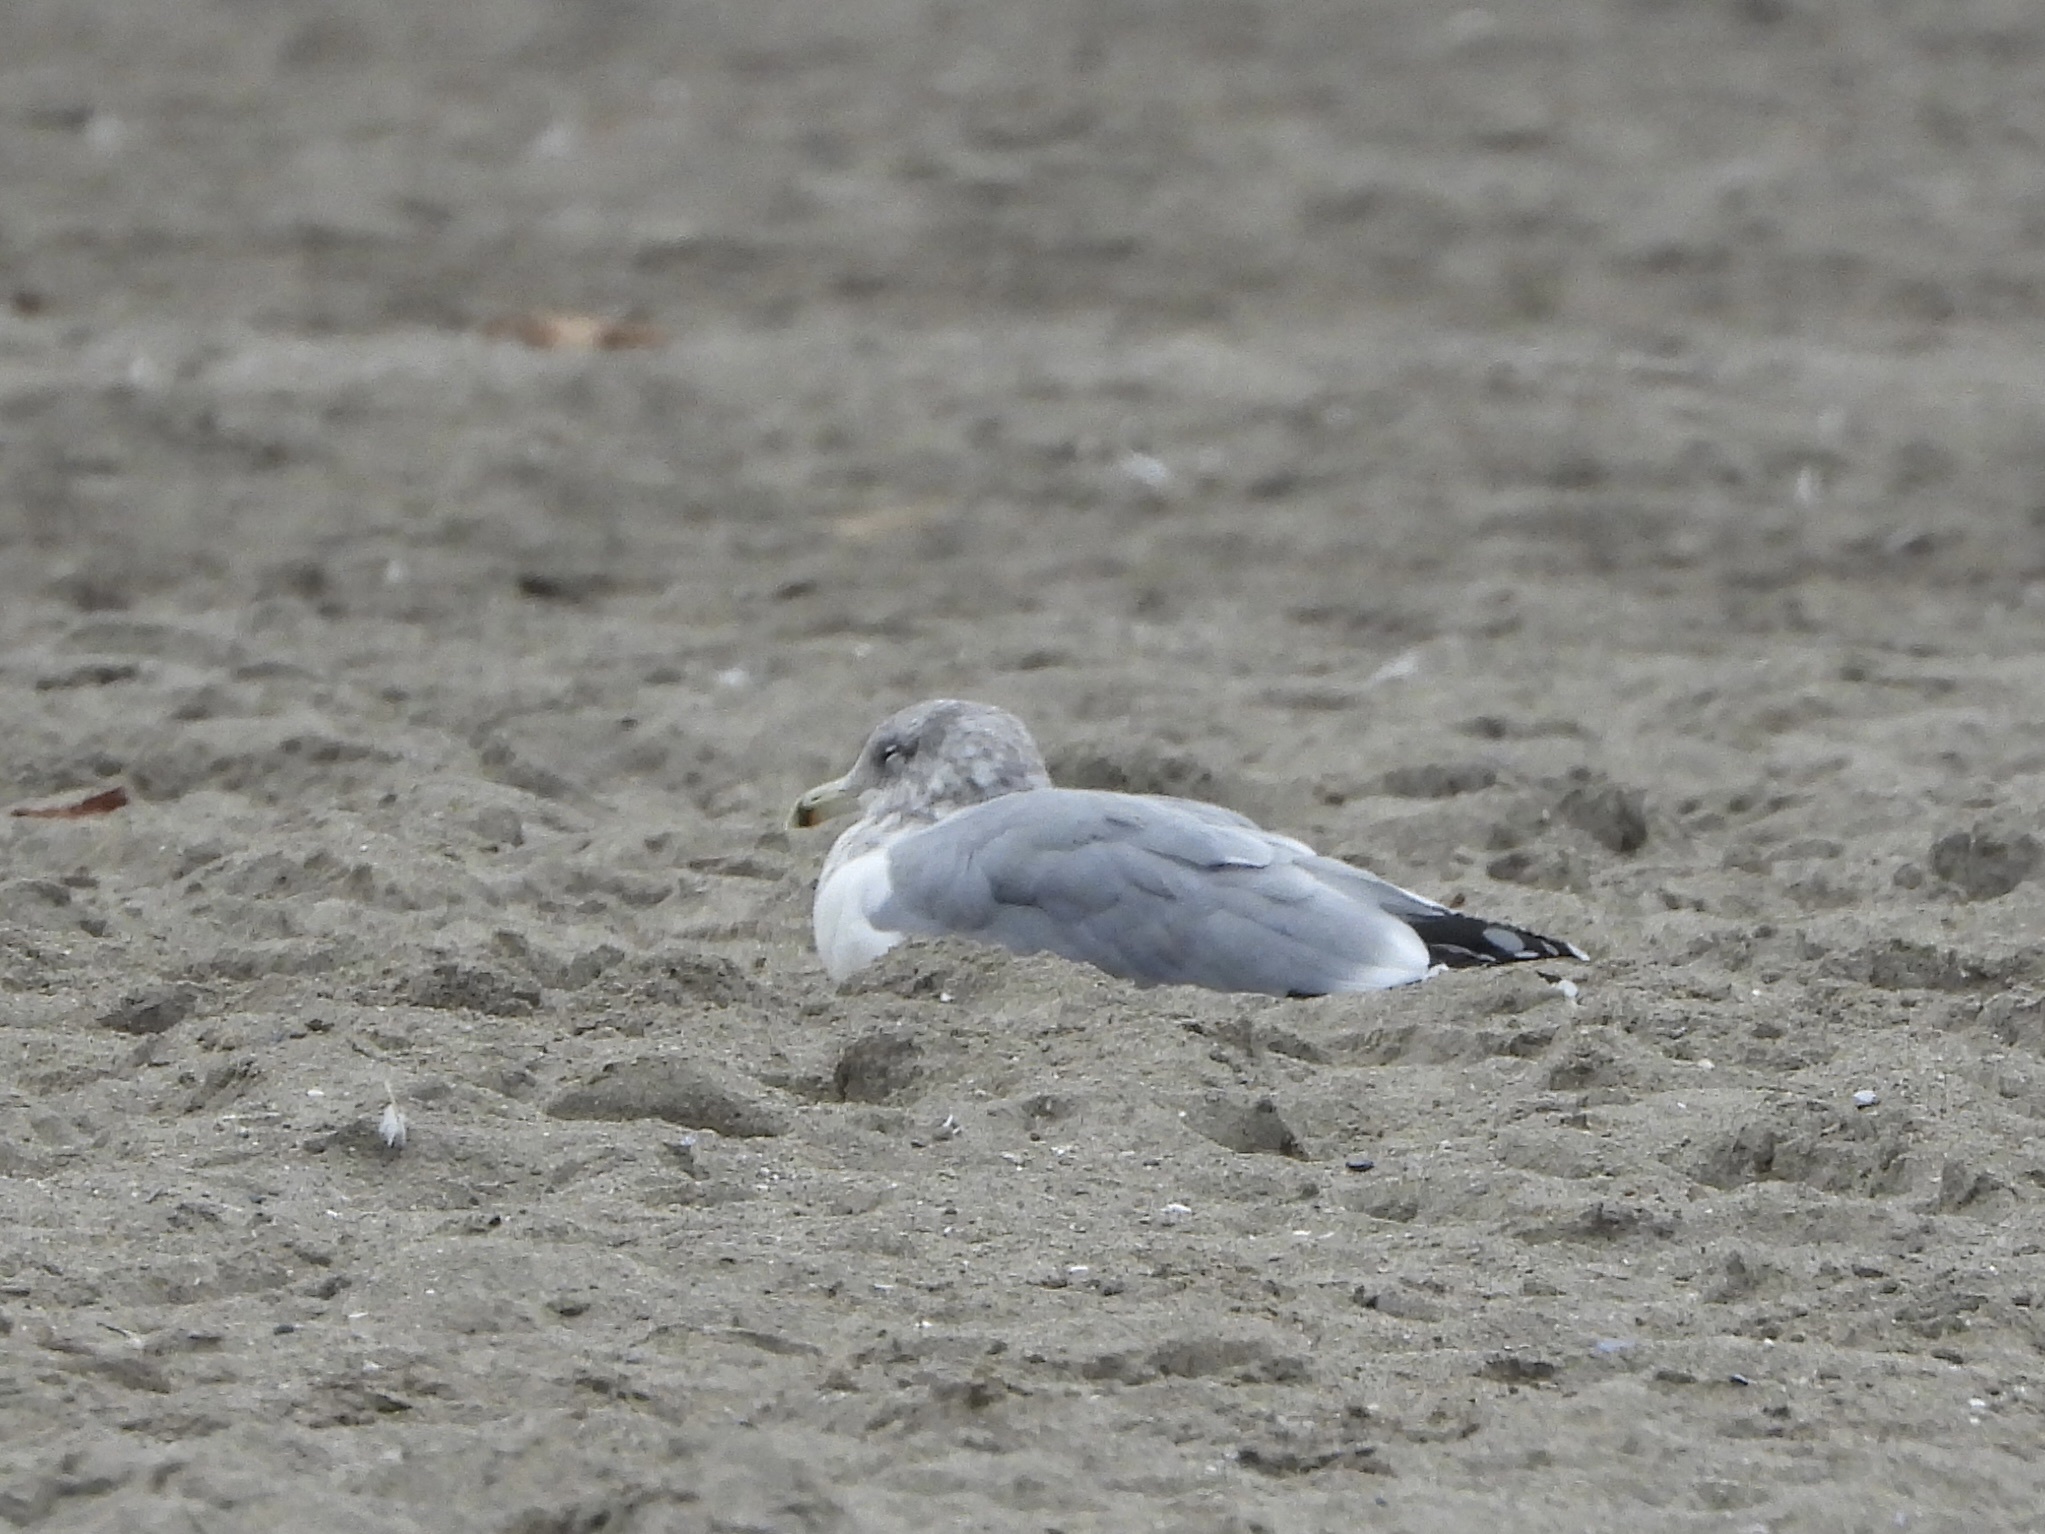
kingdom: Animalia
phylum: Chordata
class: Aves
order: Charadriiformes
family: Laridae
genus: Larus
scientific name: Larus californicus
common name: California gull
